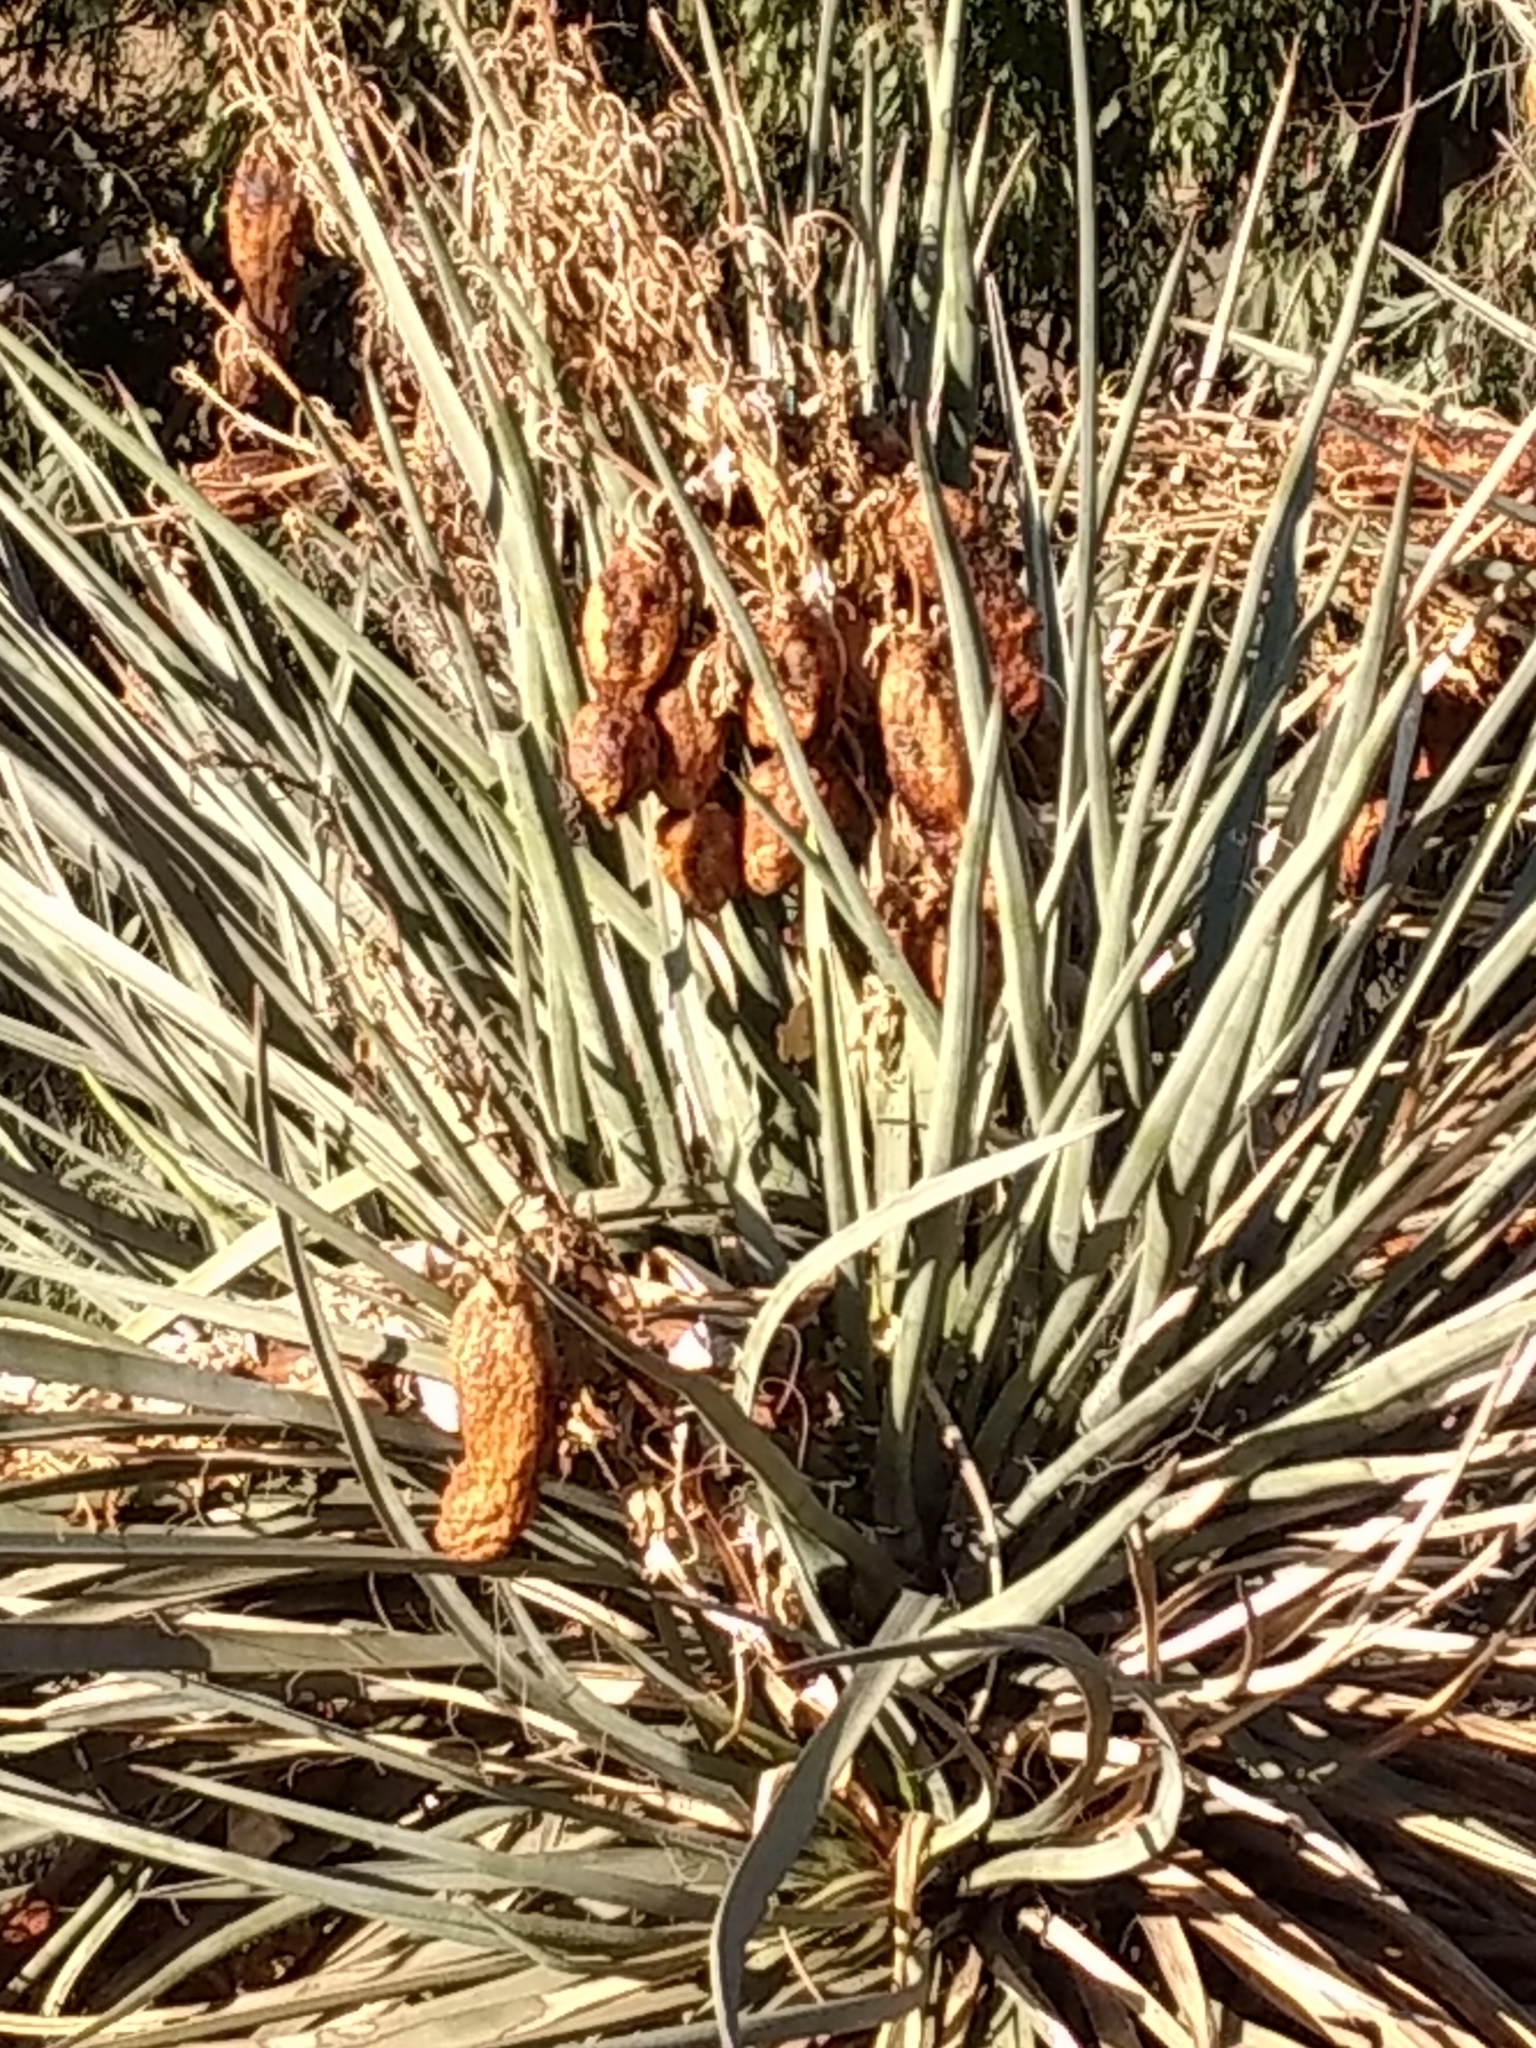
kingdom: Plantae
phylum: Tracheophyta
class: Liliopsida
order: Asparagales
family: Asparagaceae
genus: Yucca
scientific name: Yucca schidigera
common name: Mojave yucca
